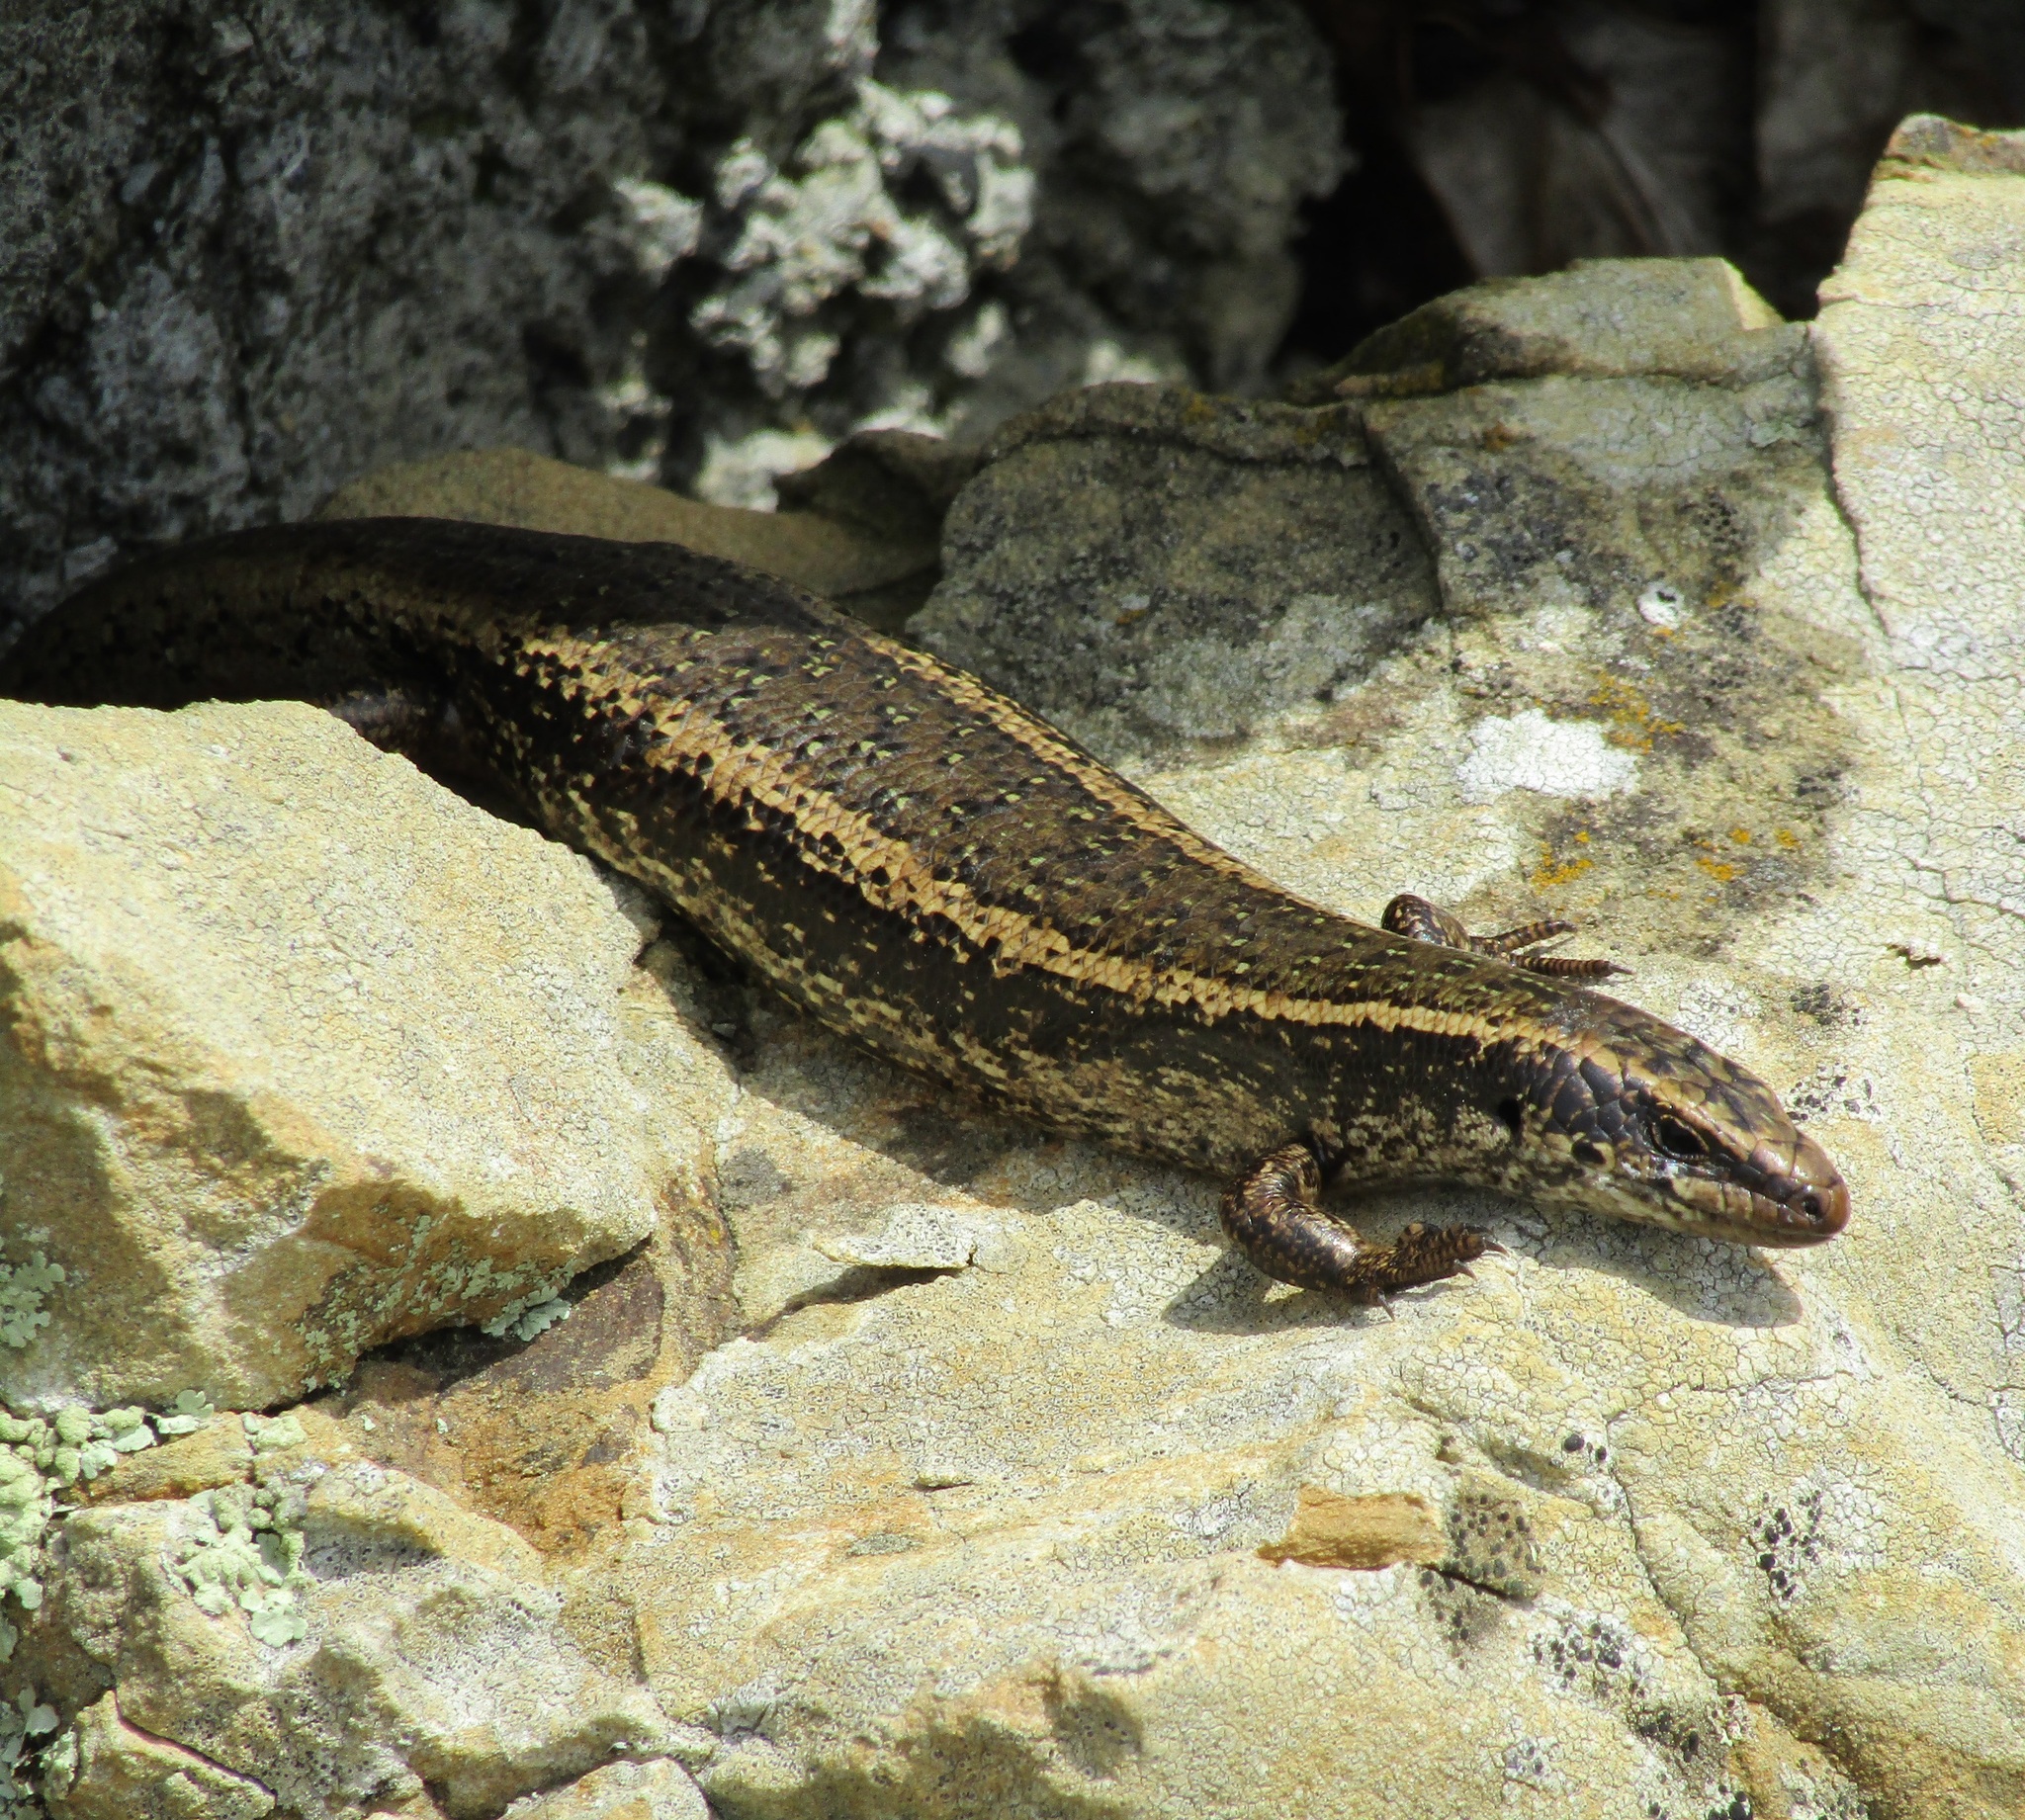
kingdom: Animalia
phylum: Chordata
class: Squamata
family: Scincidae
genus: Oligosoma
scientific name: Oligosoma kokowai
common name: Northern spotted skink
